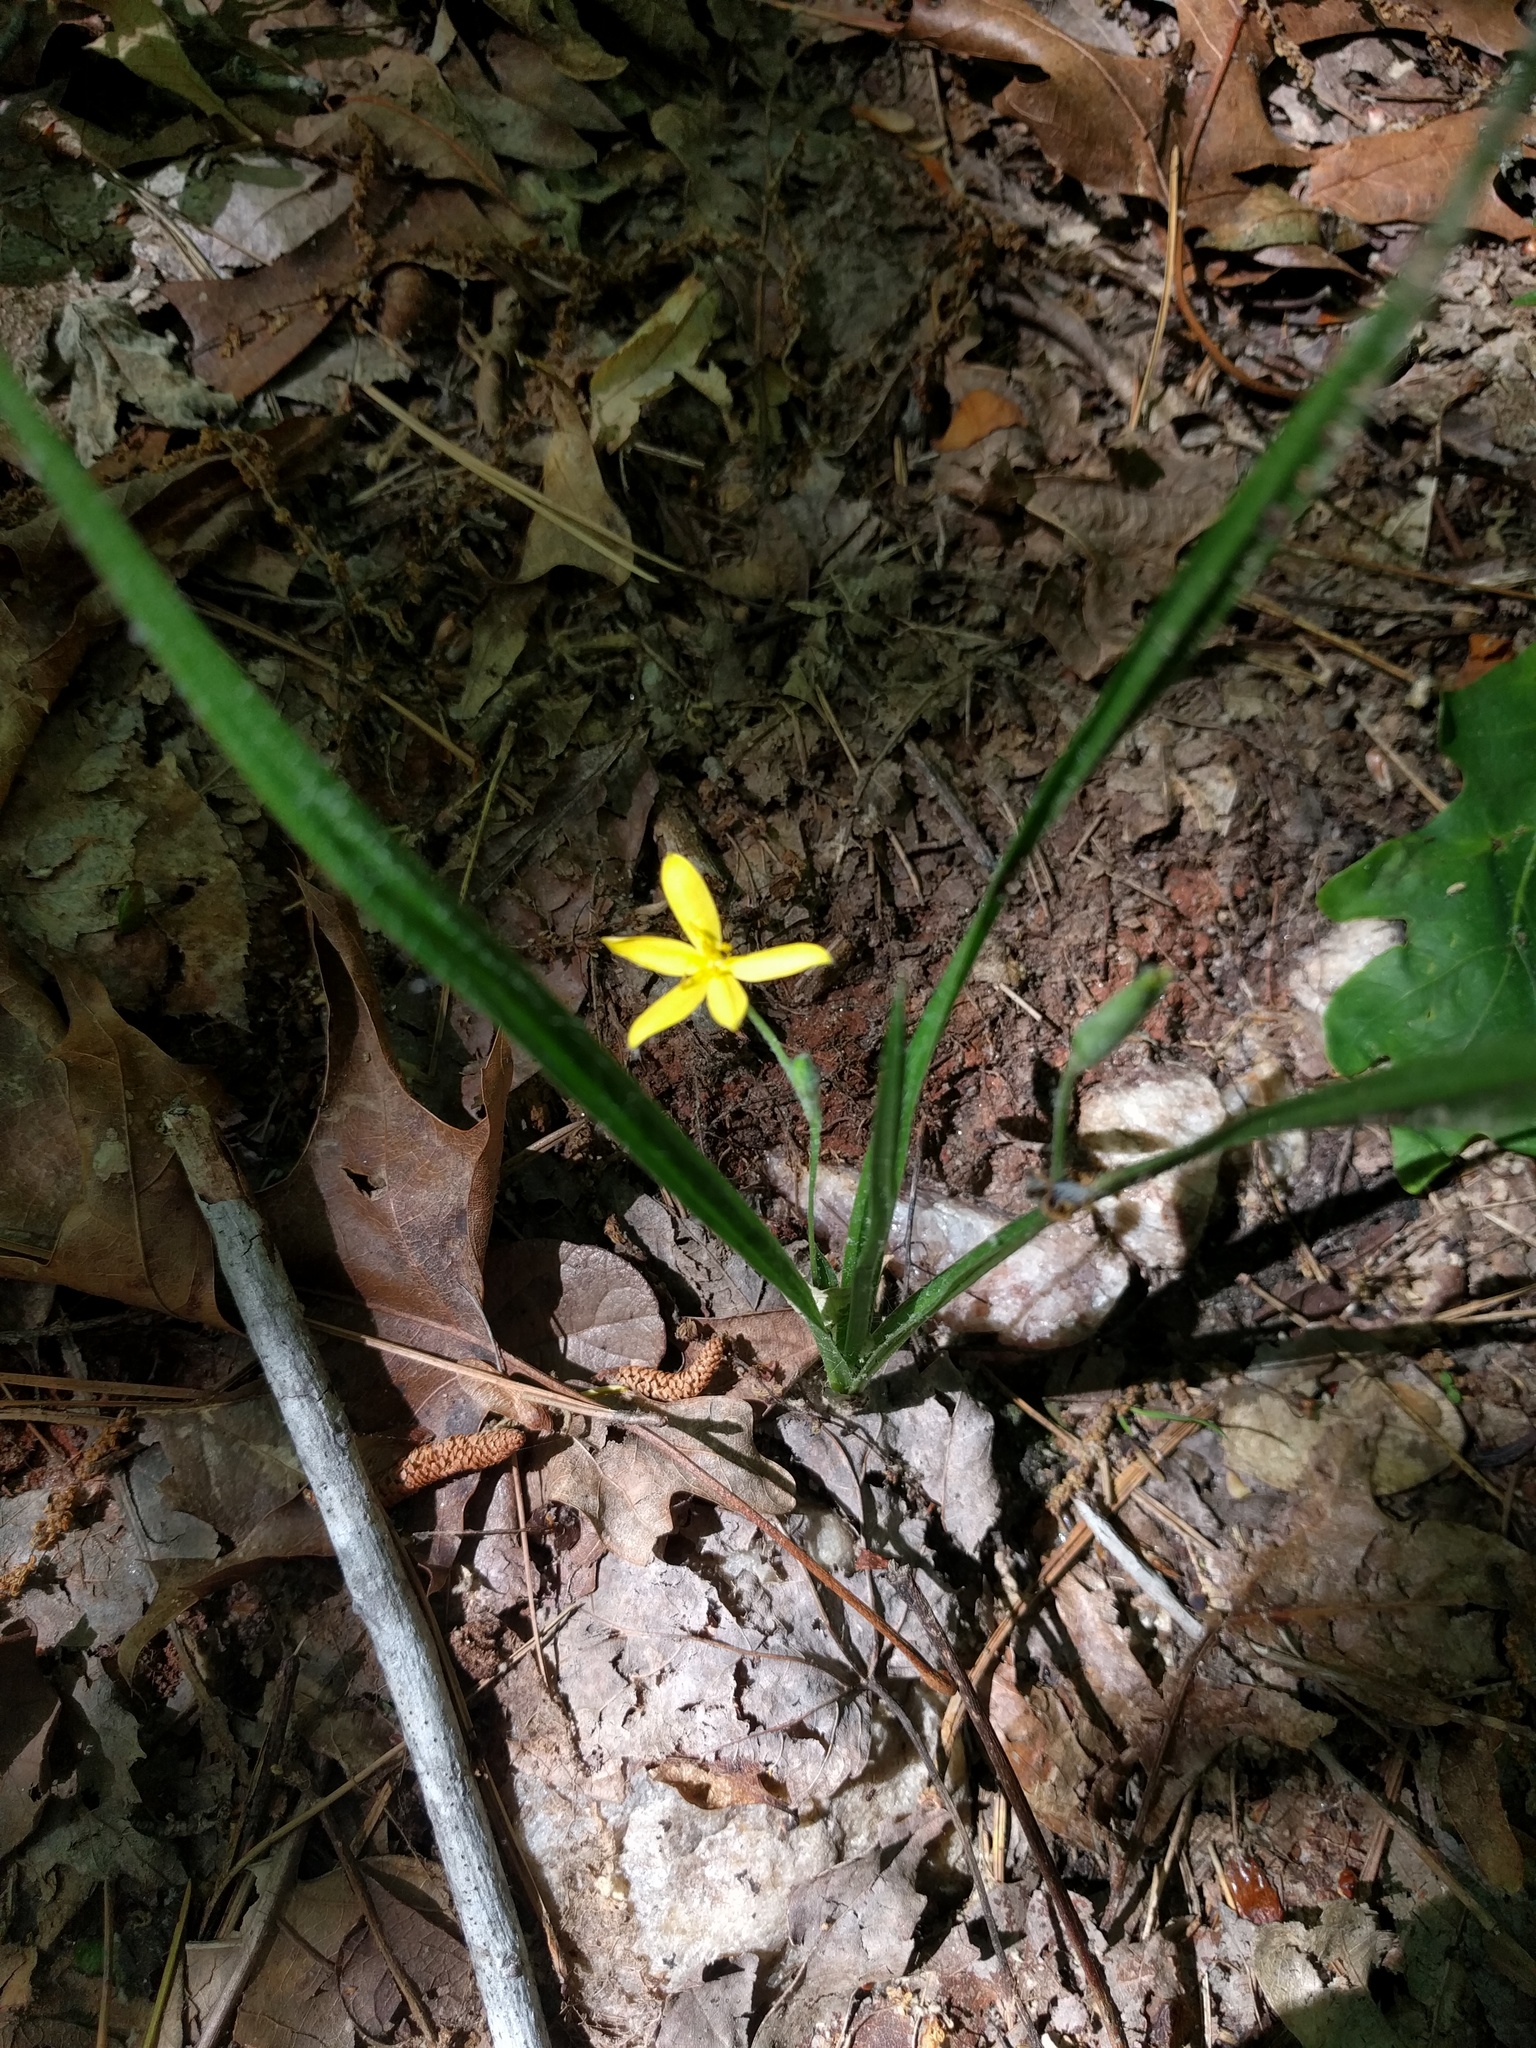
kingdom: Plantae
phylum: Tracheophyta
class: Liliopsida
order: Asparagales
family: Hypoxidaceae
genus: Hypoxis
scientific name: Hypoxis hirsuta
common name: Common goldstar
